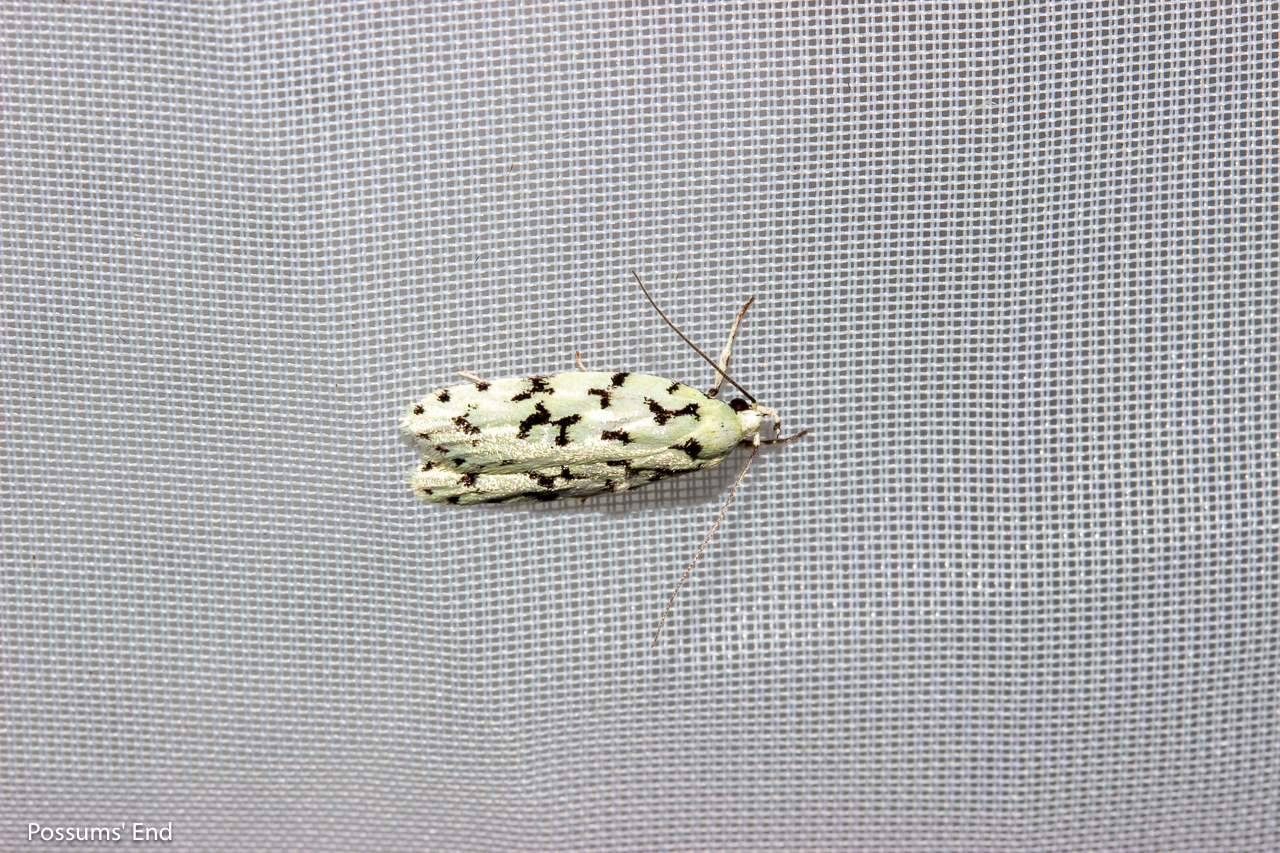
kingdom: Animalia
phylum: Arthropoda
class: Insecta
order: Lepidoptera
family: Oecophoridae
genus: Izatha
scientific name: Izatha huttoni
